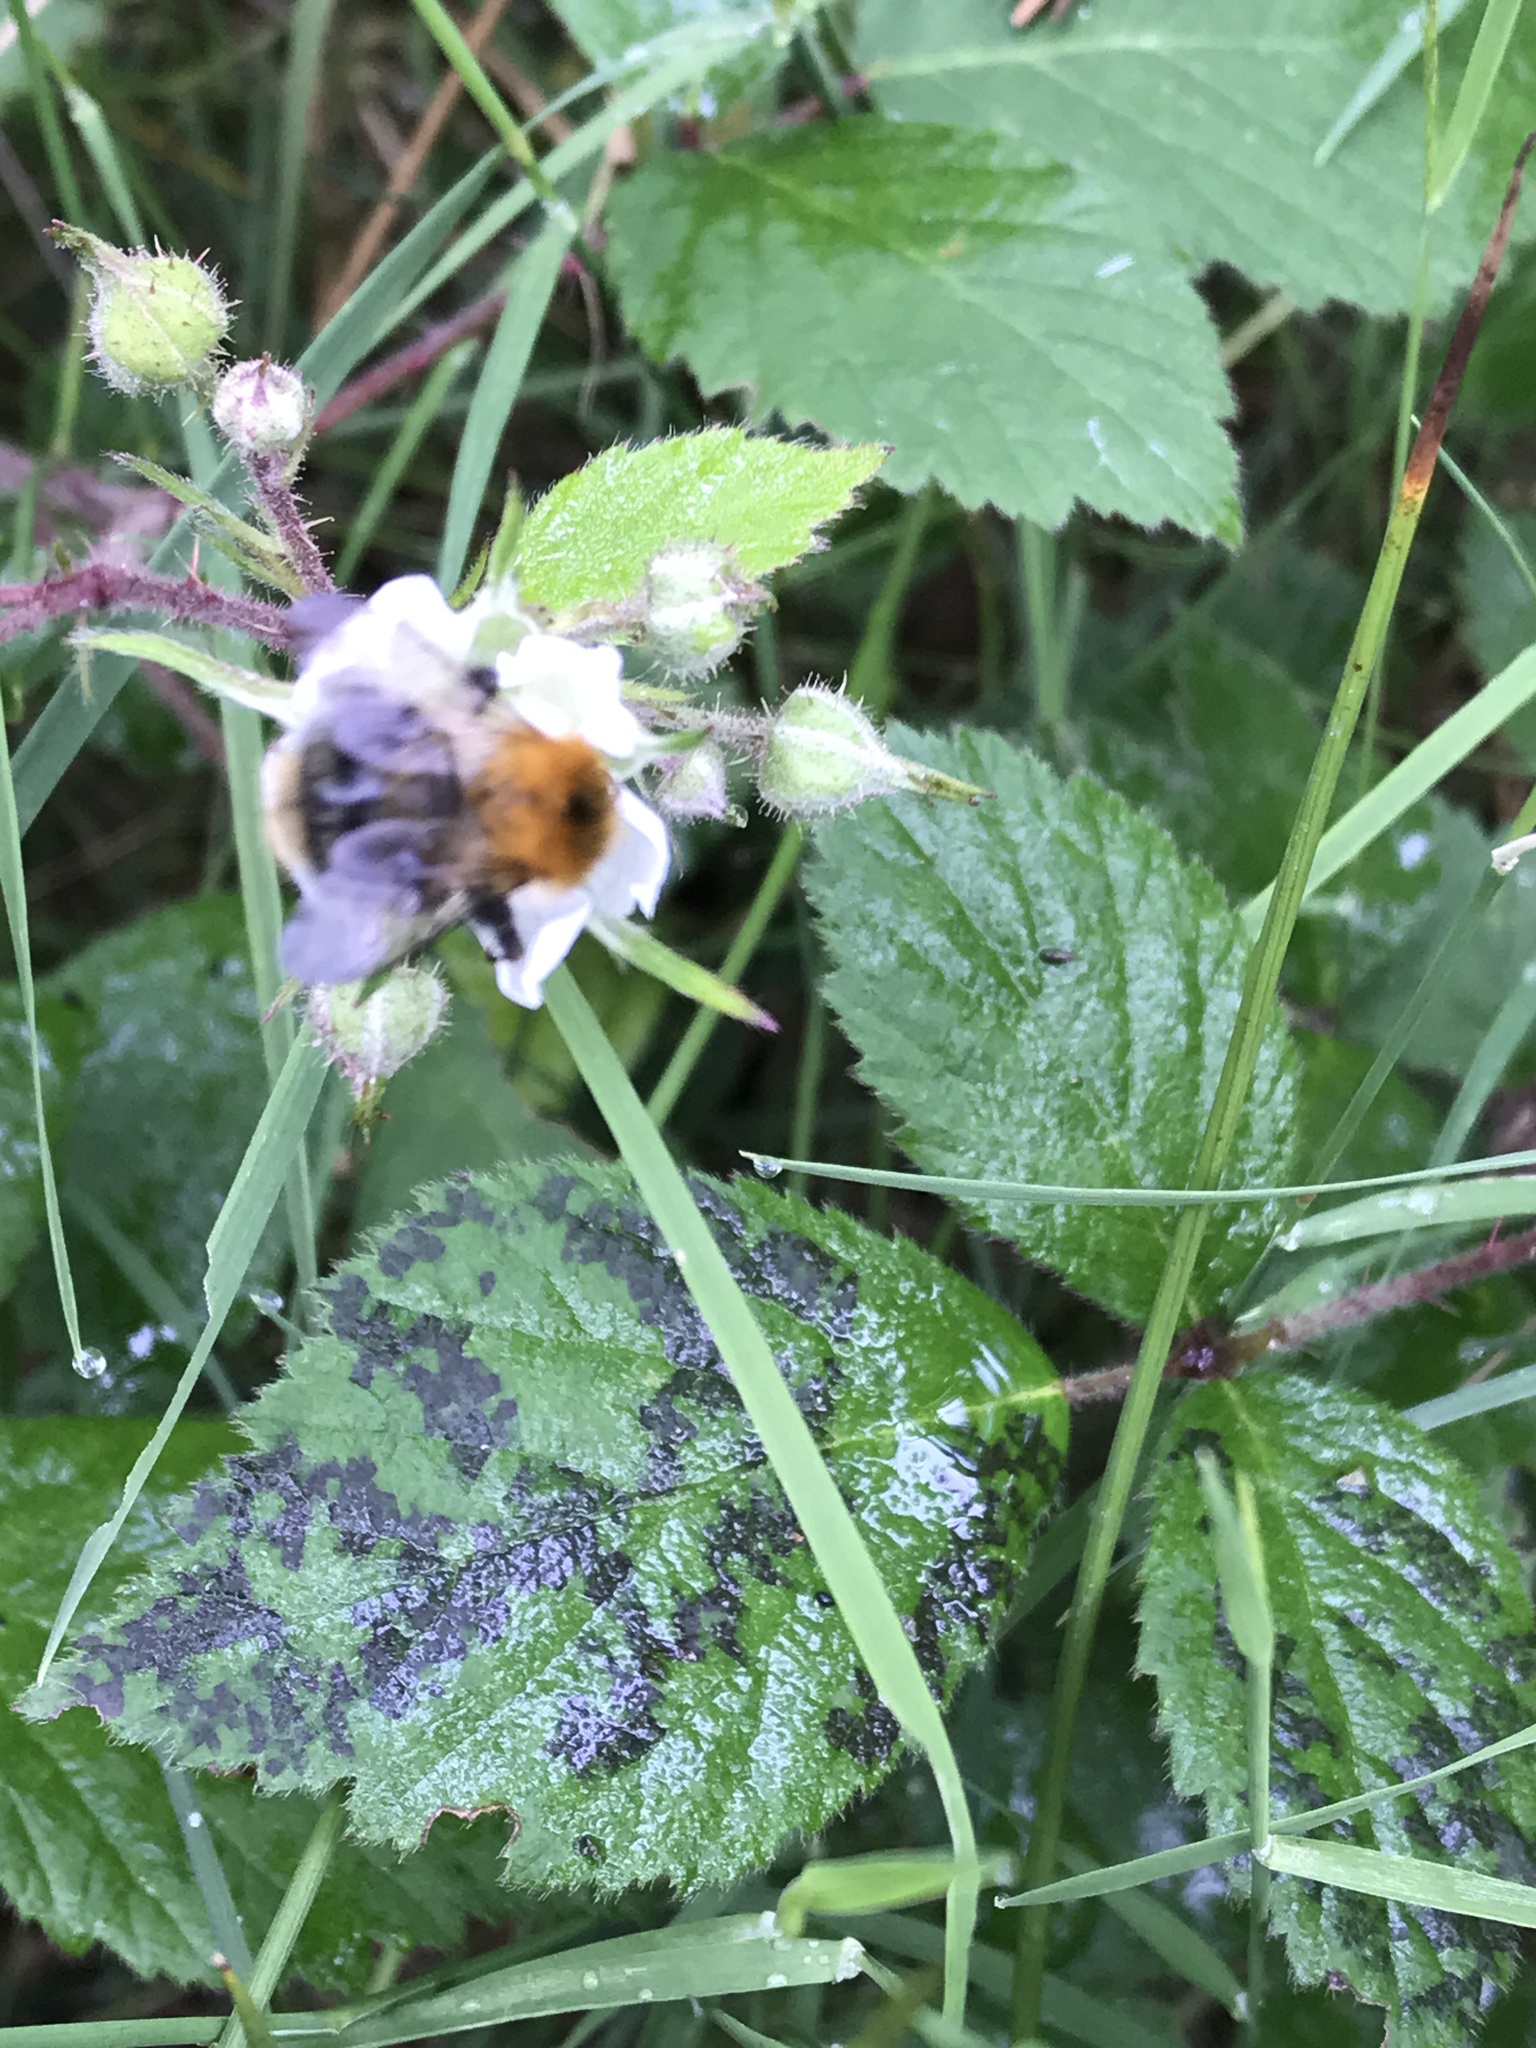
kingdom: Animalia
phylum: Arthropoda
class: Insecta
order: Hymenoptera
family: Apidae
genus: Bombus
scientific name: Bombus pascuorum
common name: Common carder bee
